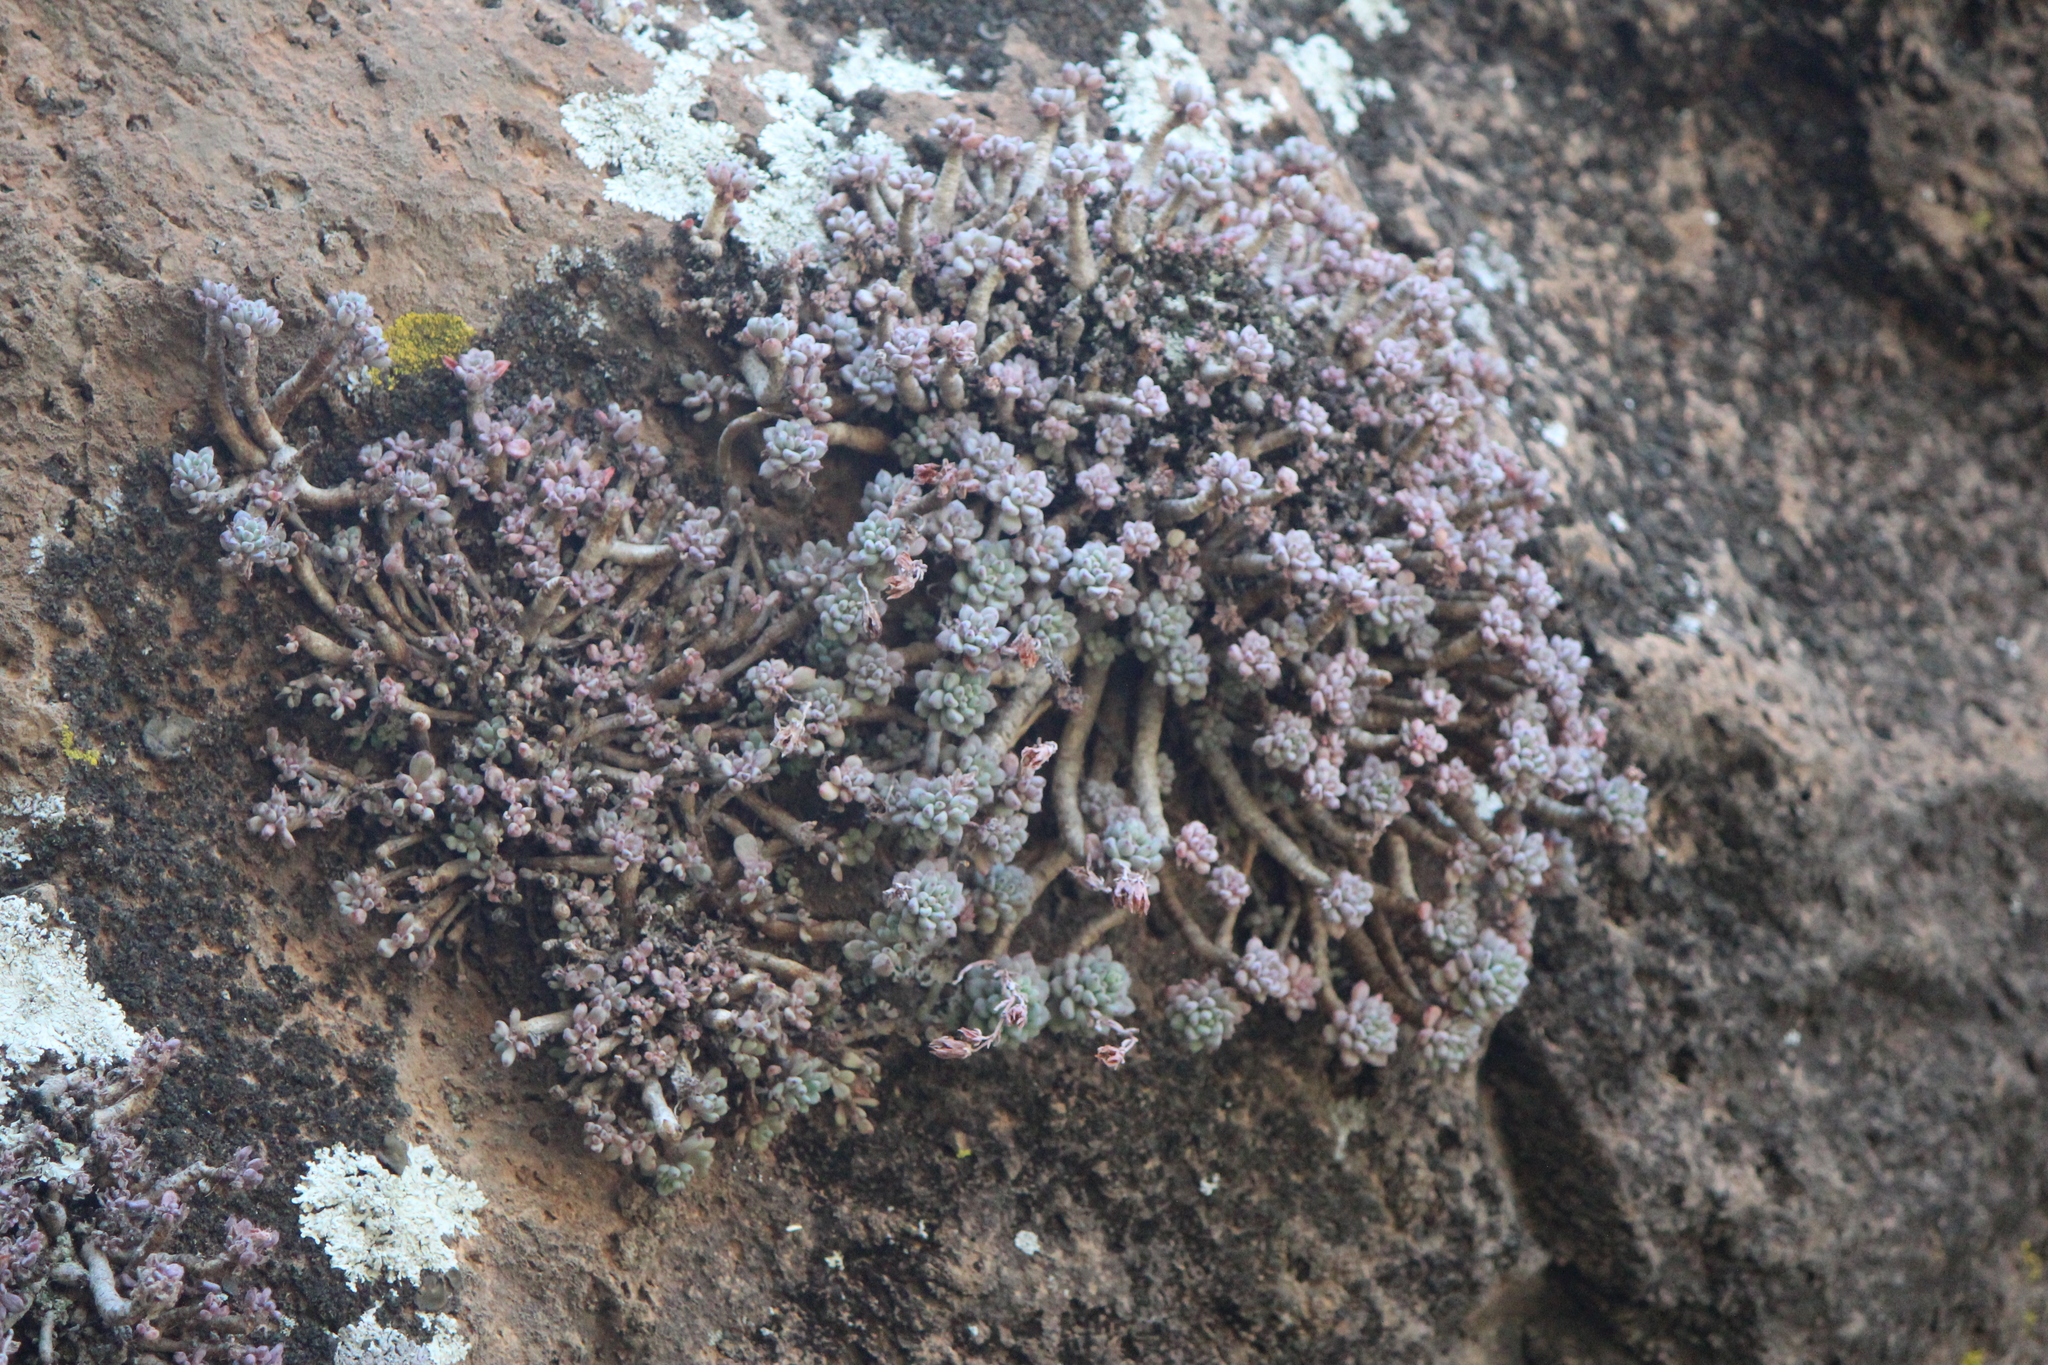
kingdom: Plantae
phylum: Tracheophyta
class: Magnoliopsida
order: Saxifragales
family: Crassulaceae
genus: Graptopetalum
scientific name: Graptopetalum pachyphyllum
